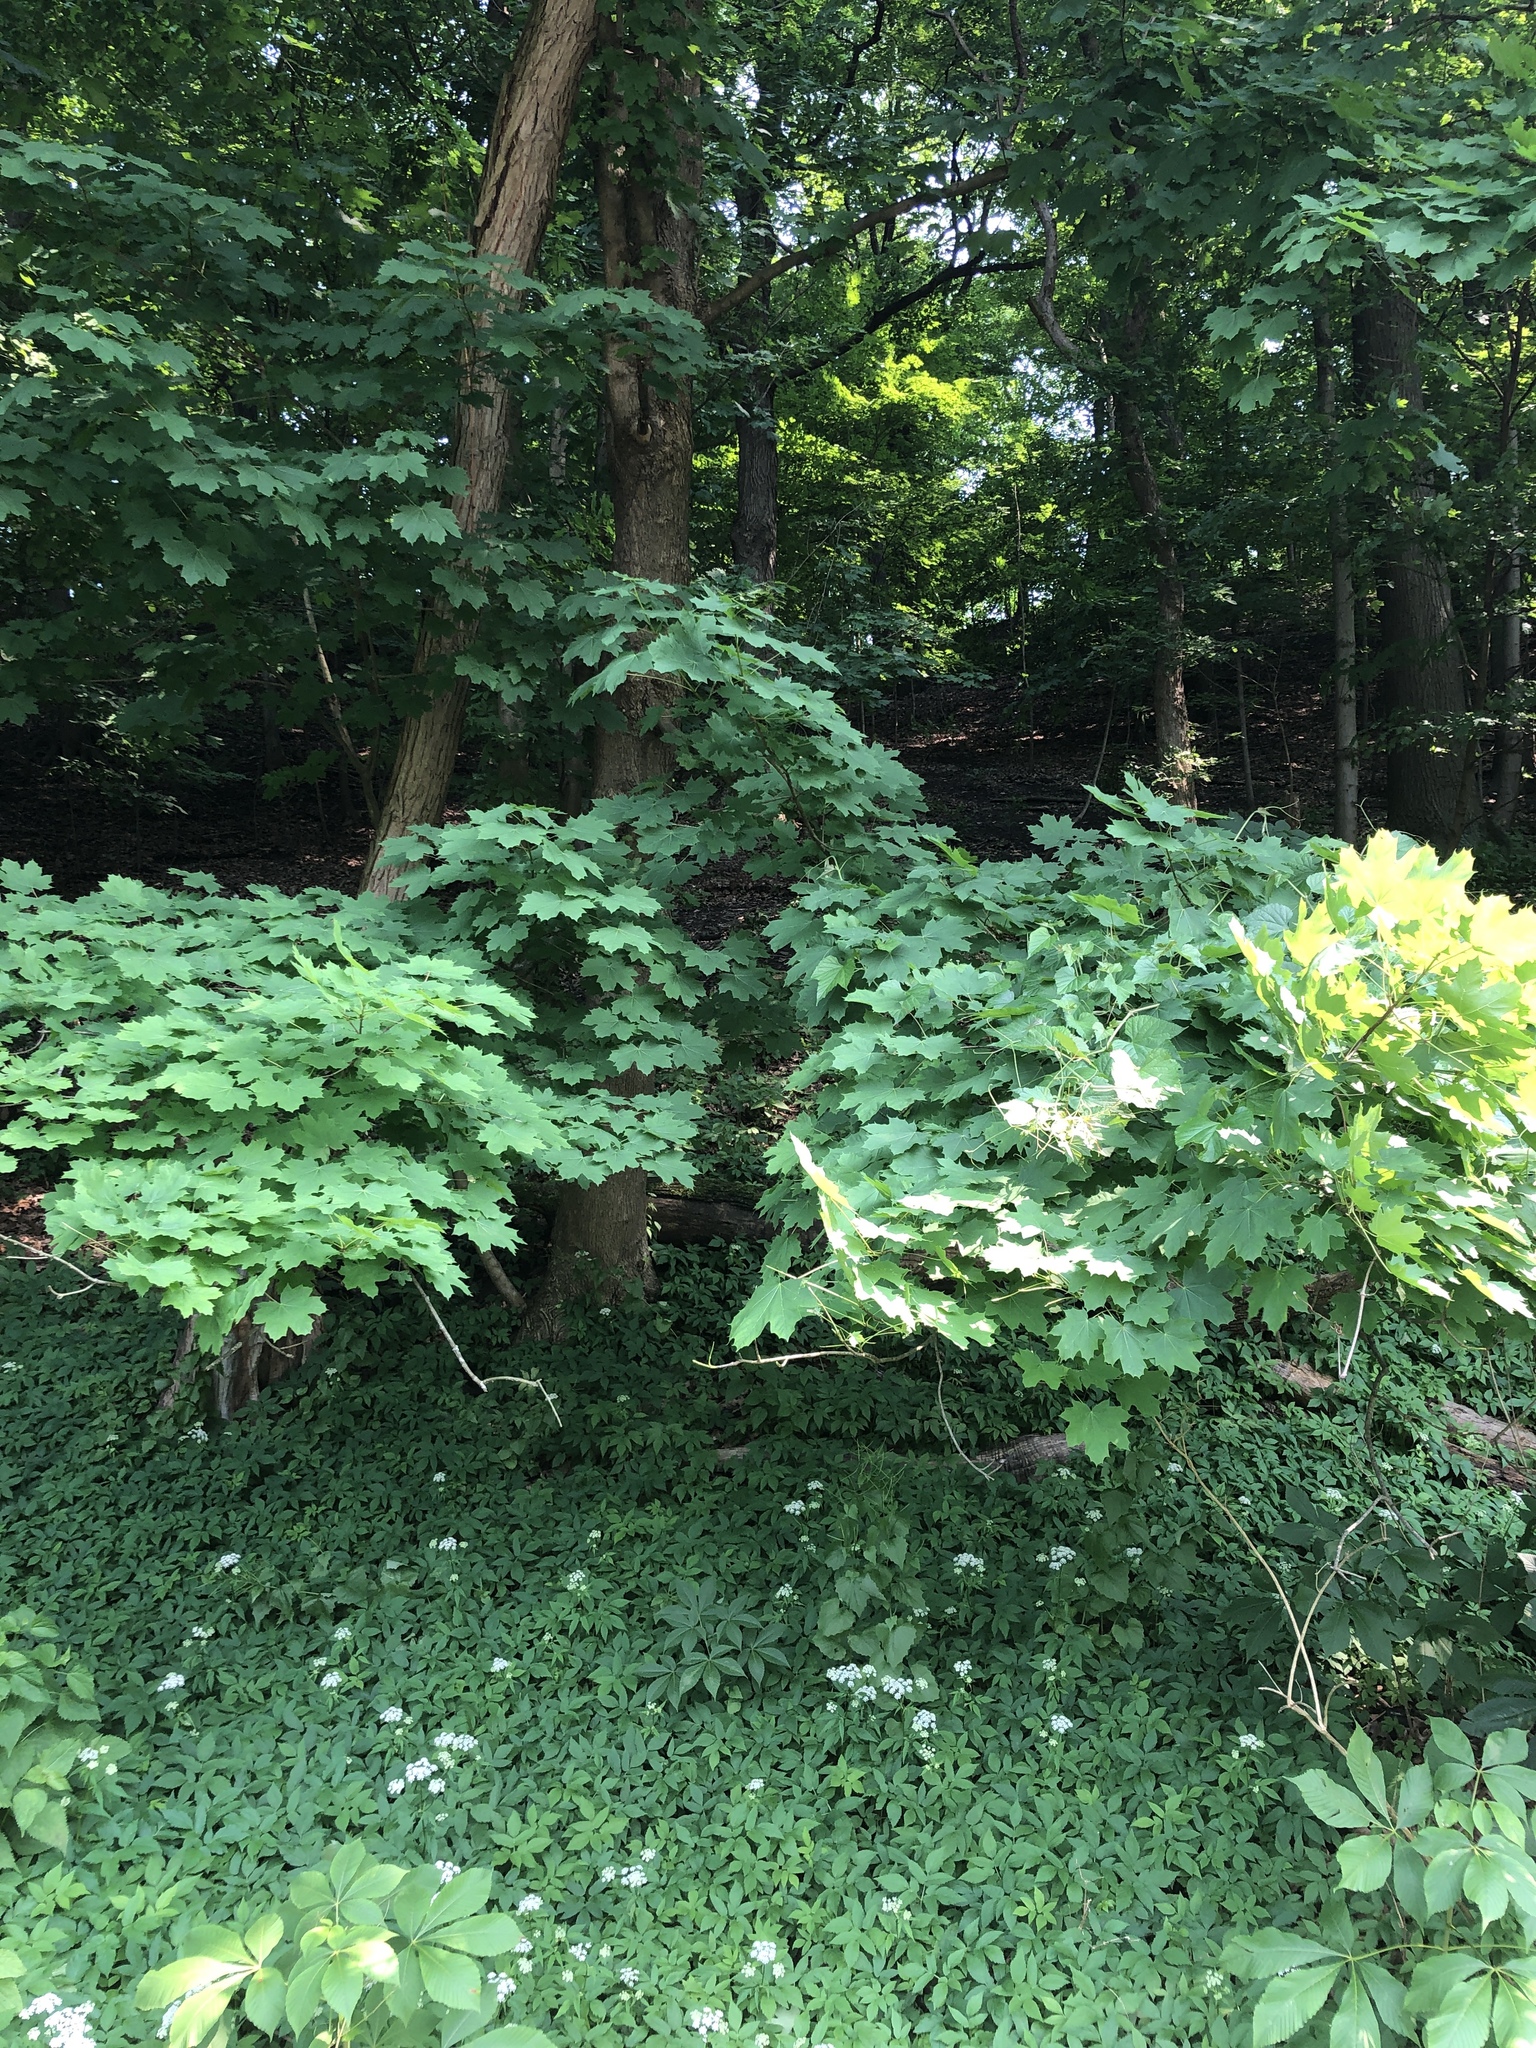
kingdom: Plantae
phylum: Tracheophyta
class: Magnoliopsida
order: Sapindales
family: Sapindaceae
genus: Acer
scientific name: Acer platanoides
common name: Norway maple
